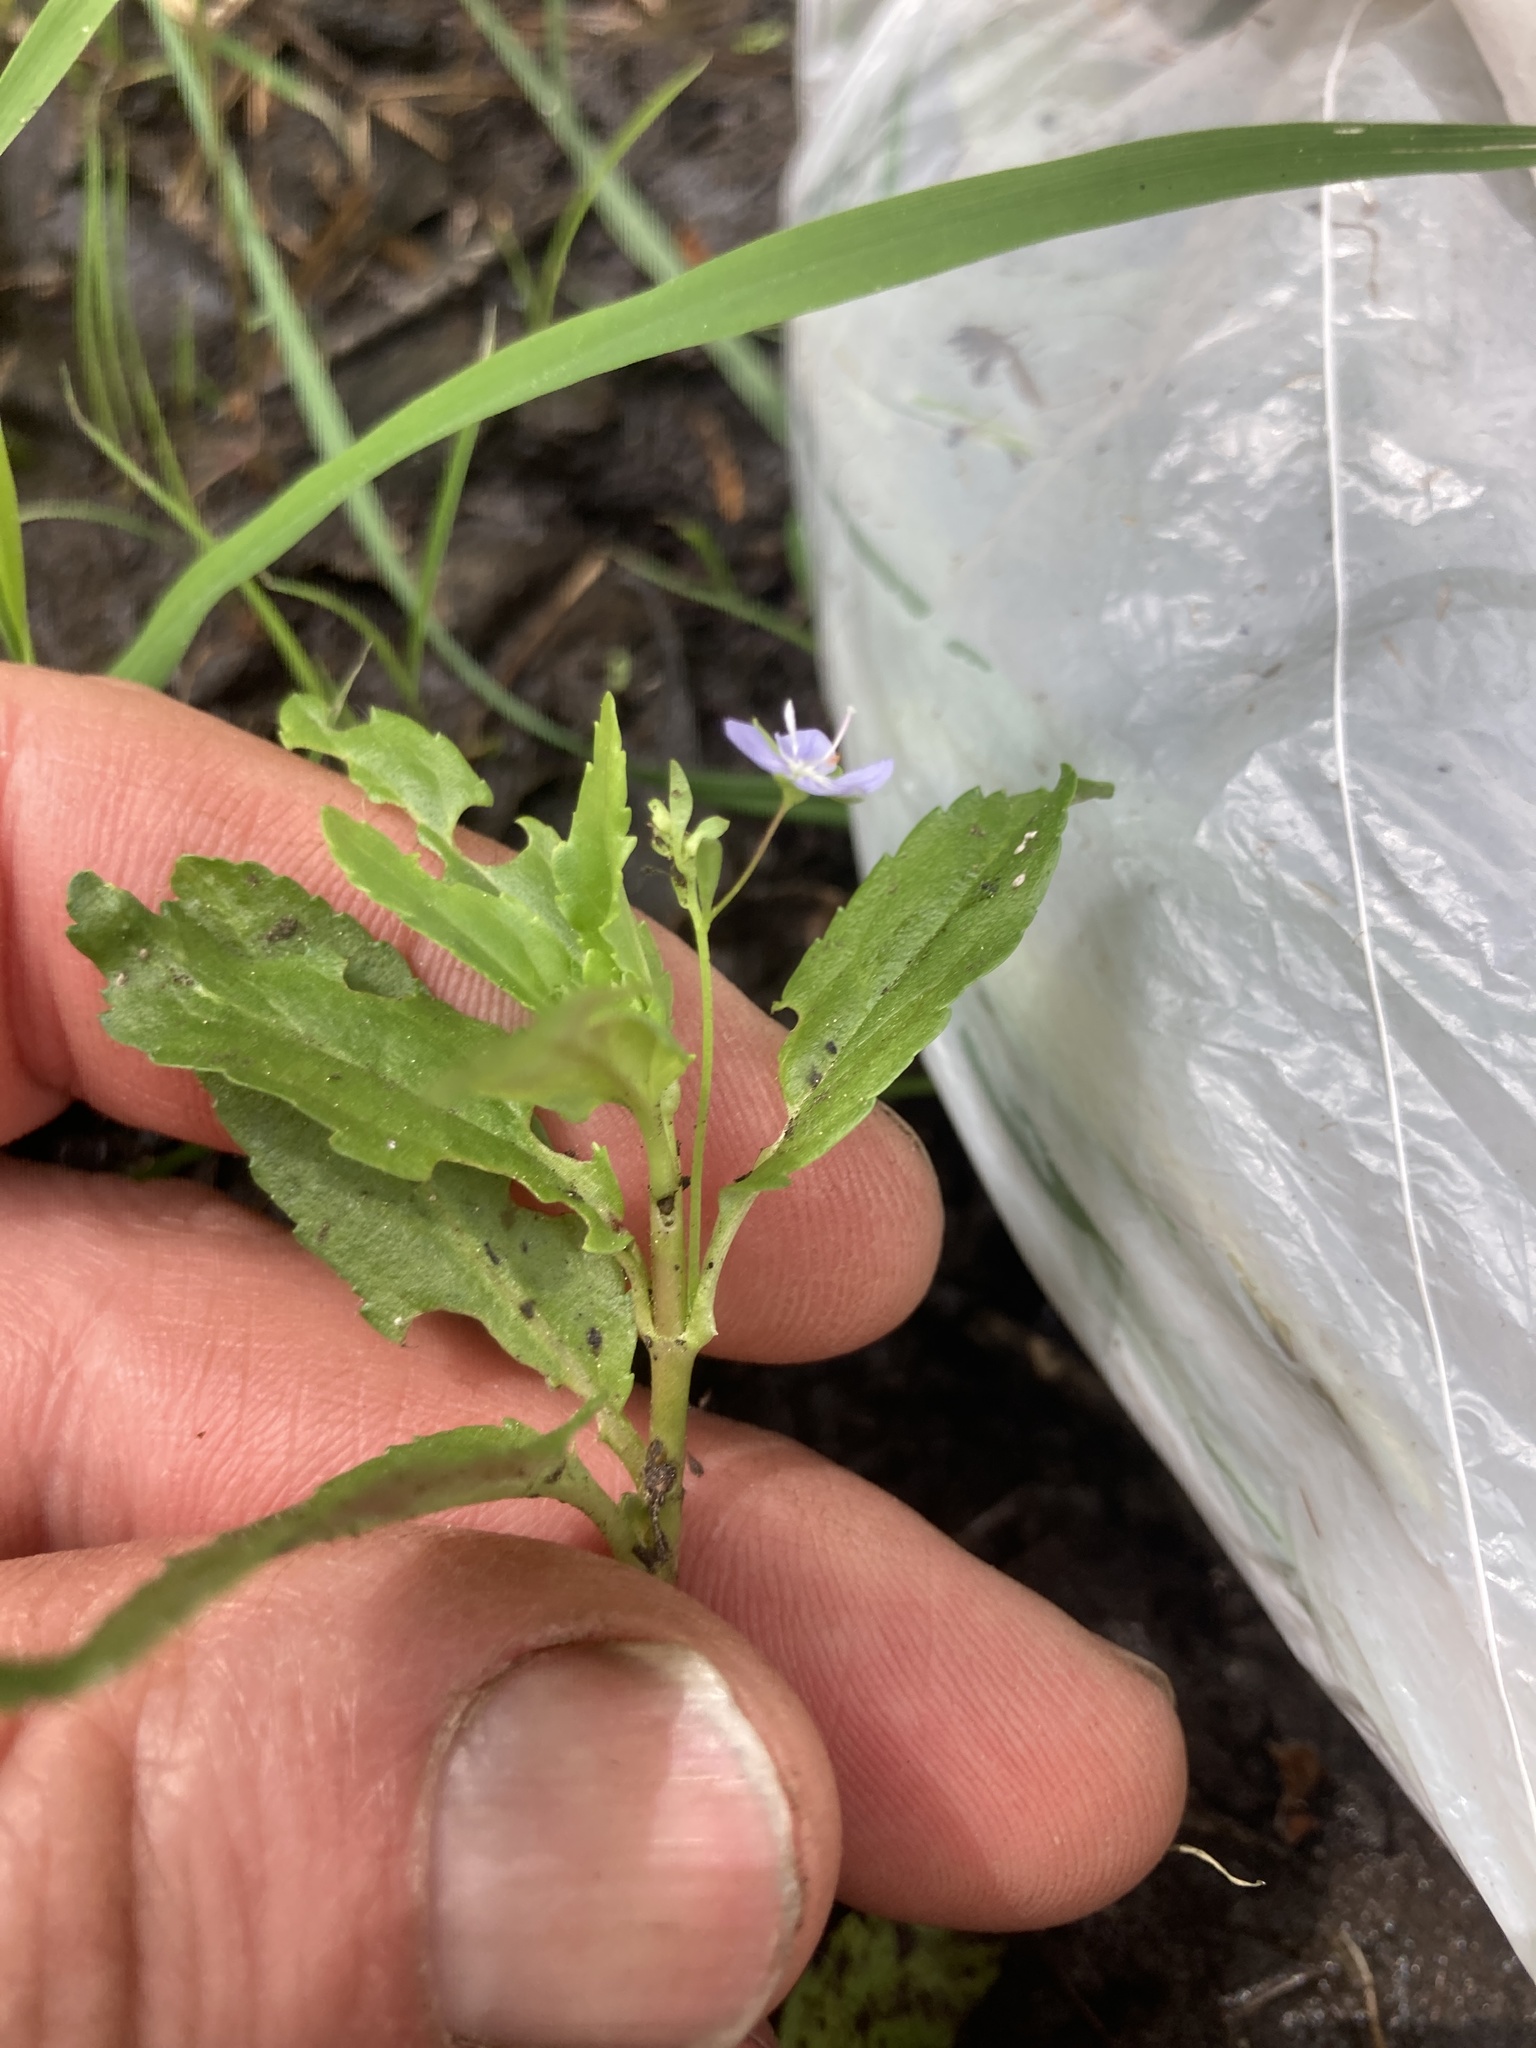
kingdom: Plantae
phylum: Tracheophyta
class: Magnoliopsida
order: Lamiales
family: Plantaginaceae
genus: Veronica
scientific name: Veronica americana
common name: American brooklime
